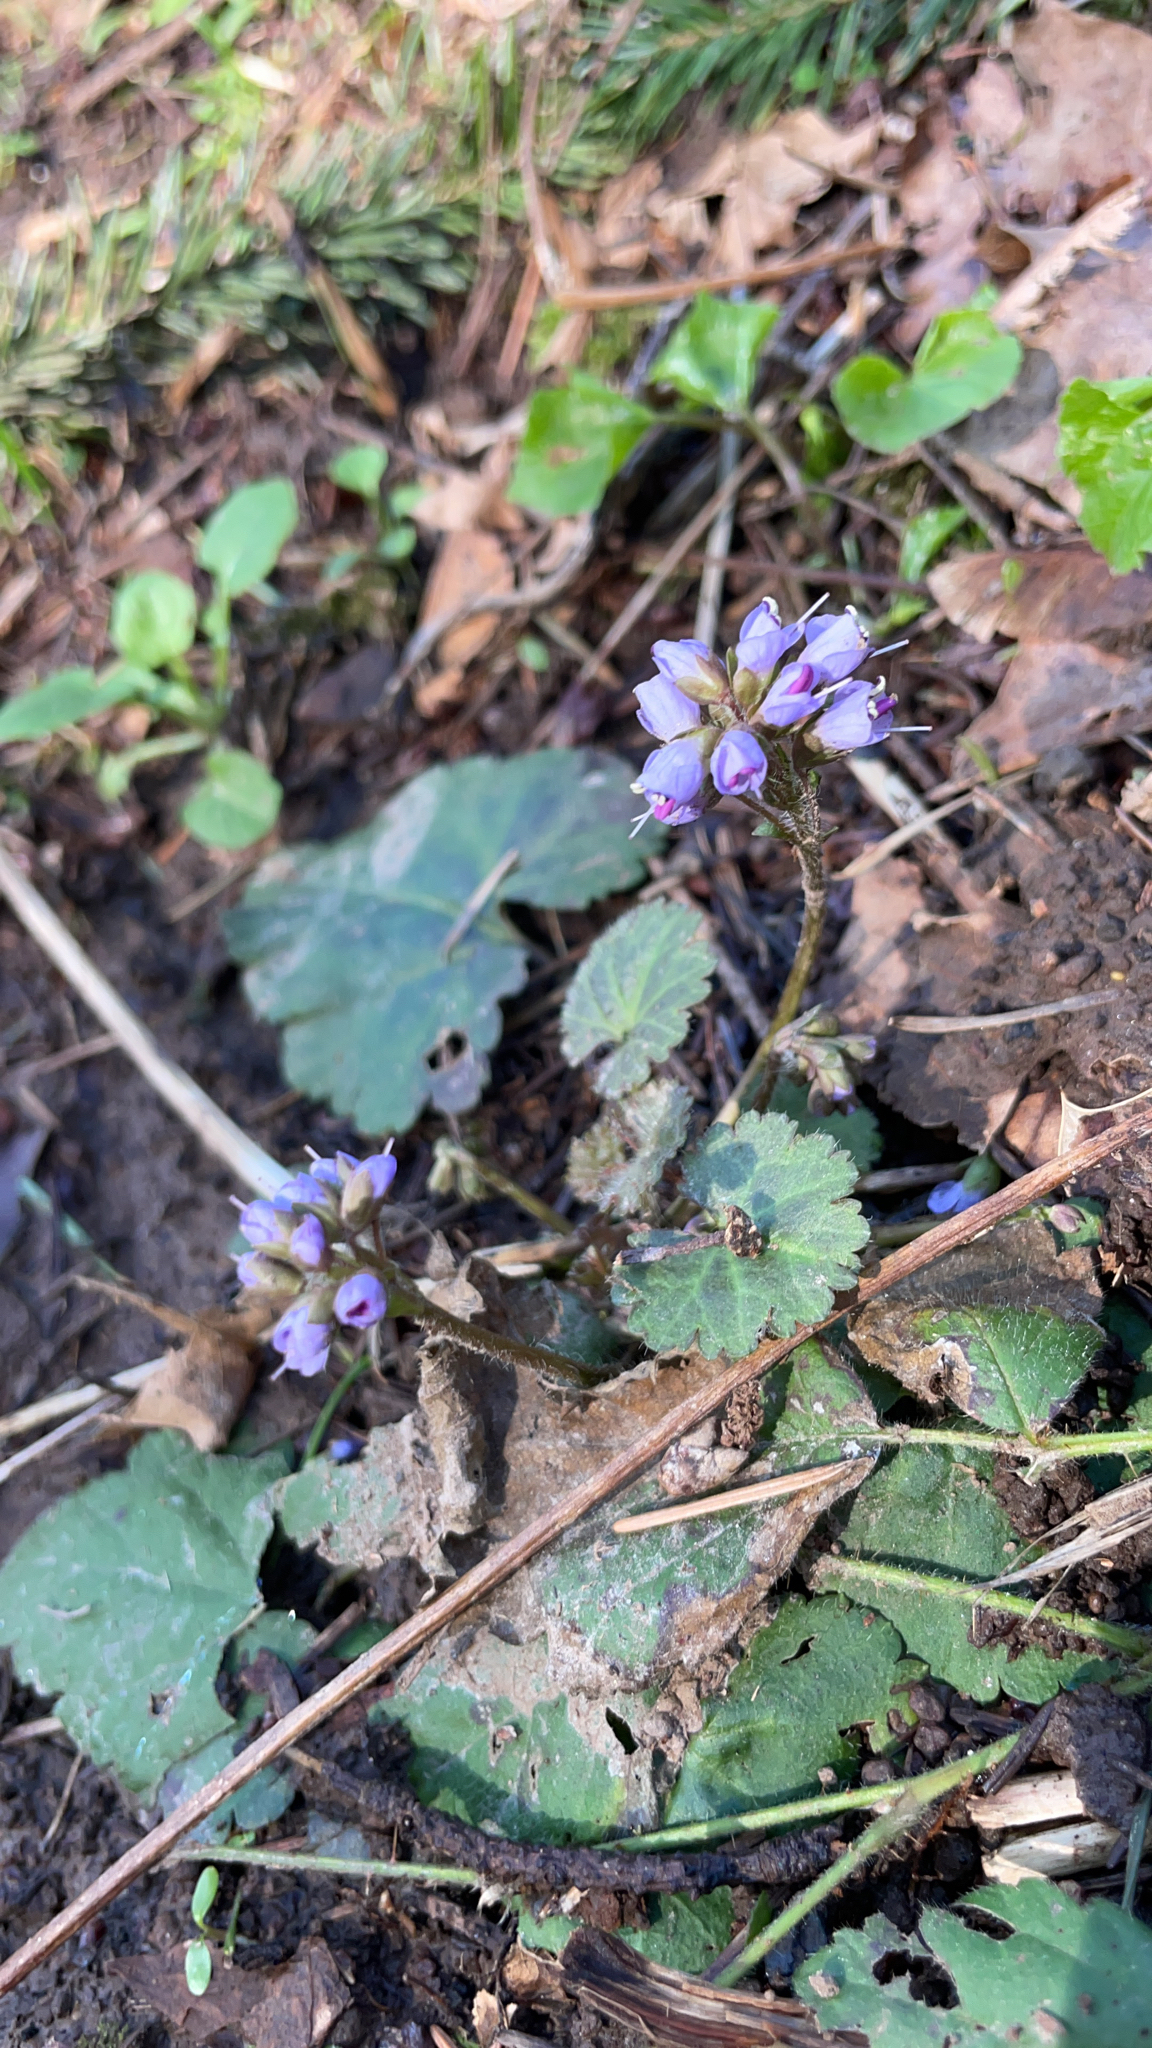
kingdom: Plantae
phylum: Tracheophyta
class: Magnoliopsida
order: Lamiales
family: Plantaginaceae
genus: Synthyris
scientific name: Synthyris reniformis
